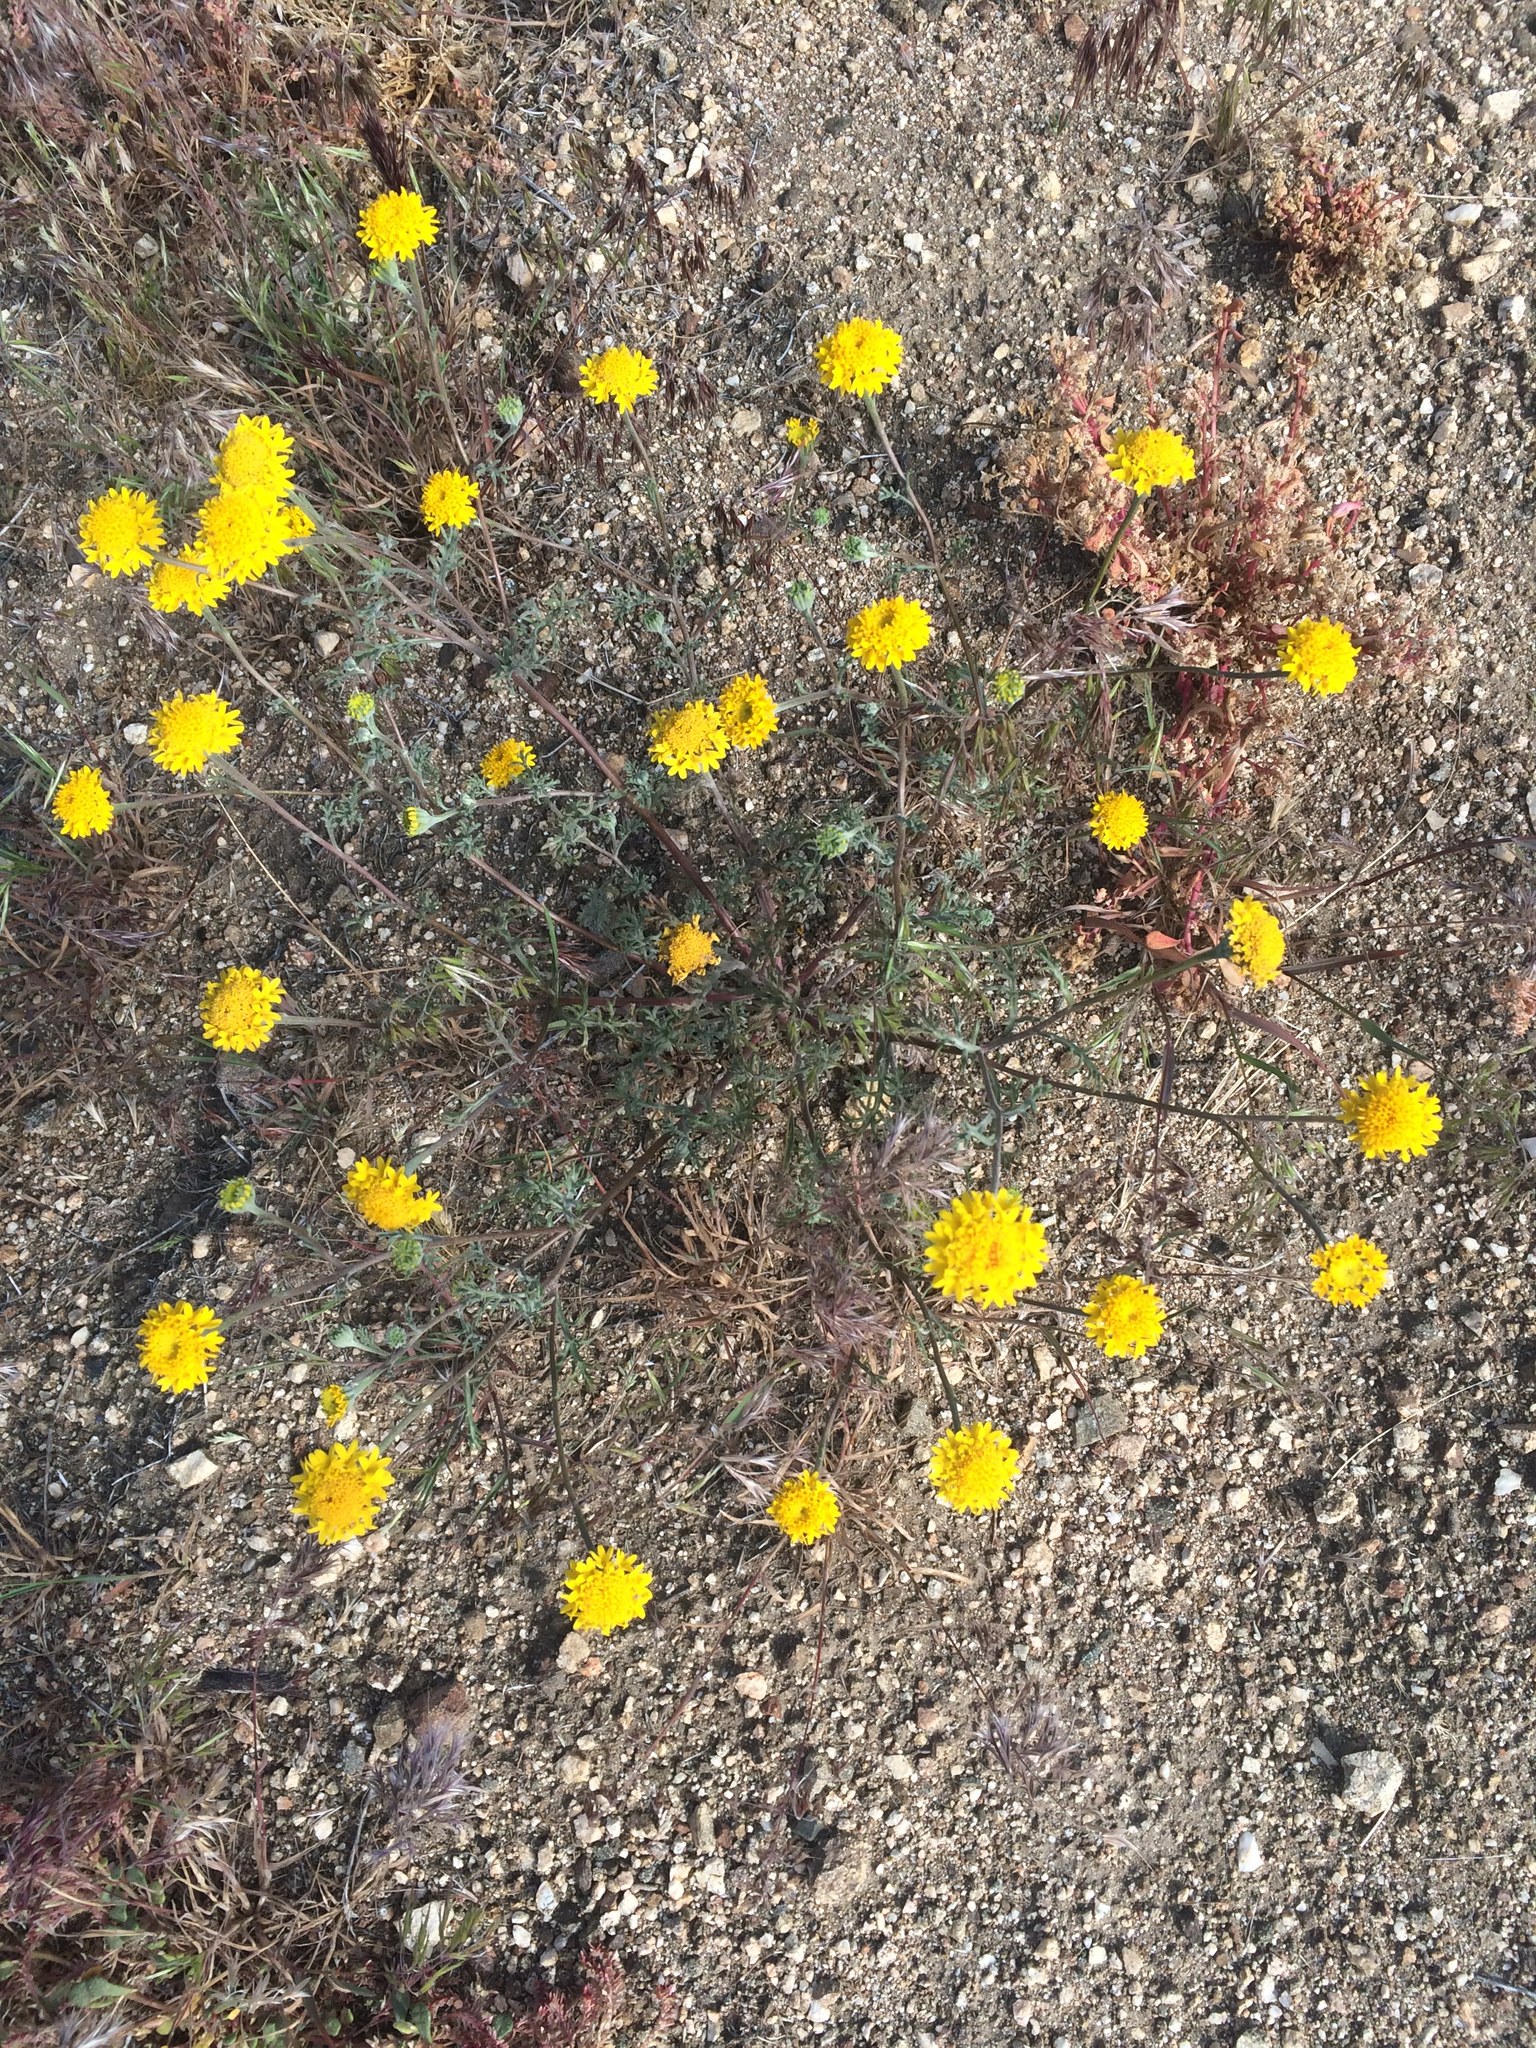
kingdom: Plantae
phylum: Tracheophyta
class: Magnoliopsida
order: Asterales
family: Asteraceae
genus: Chaenactis
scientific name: Chaenactis glabriuscula
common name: Yellow pincushion
